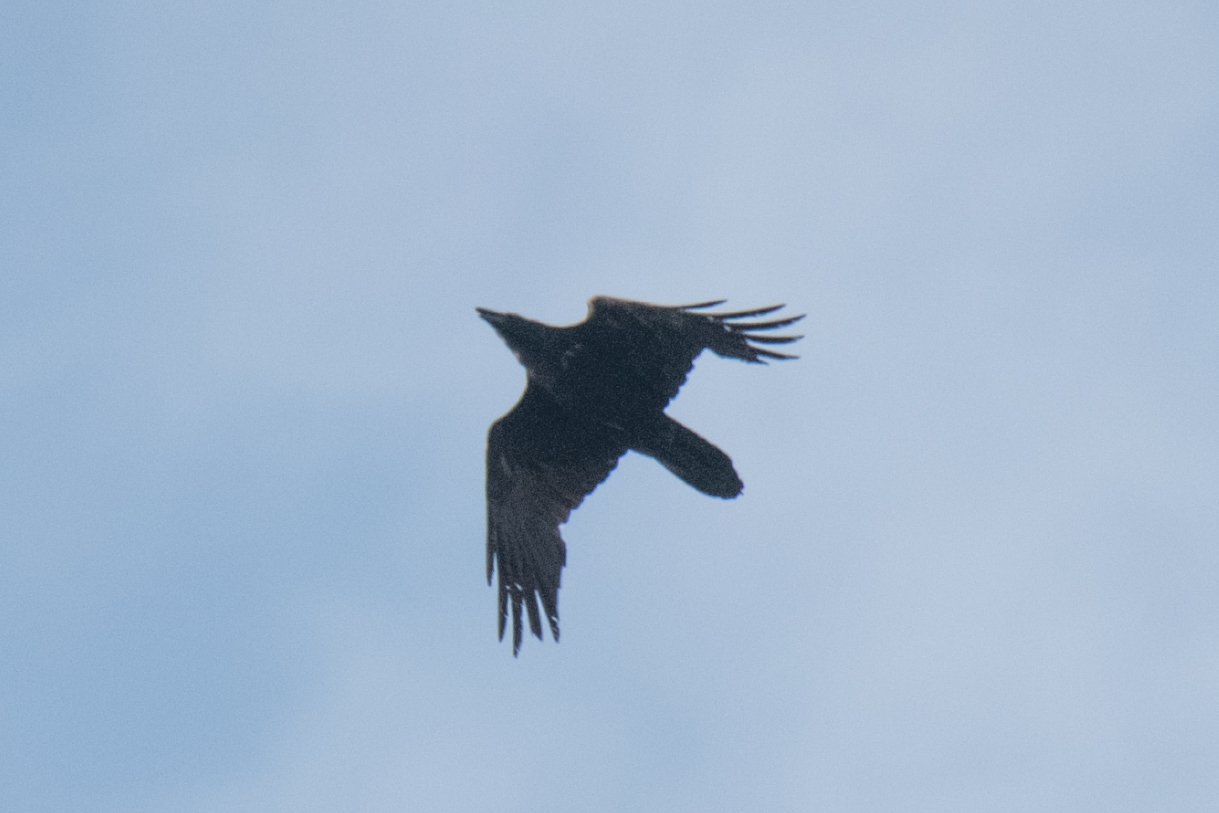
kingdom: Animalia
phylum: Chordata
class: Aves
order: Passeriformes
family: Corvidae
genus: Corvus
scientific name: Corvus corax
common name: Common raven
